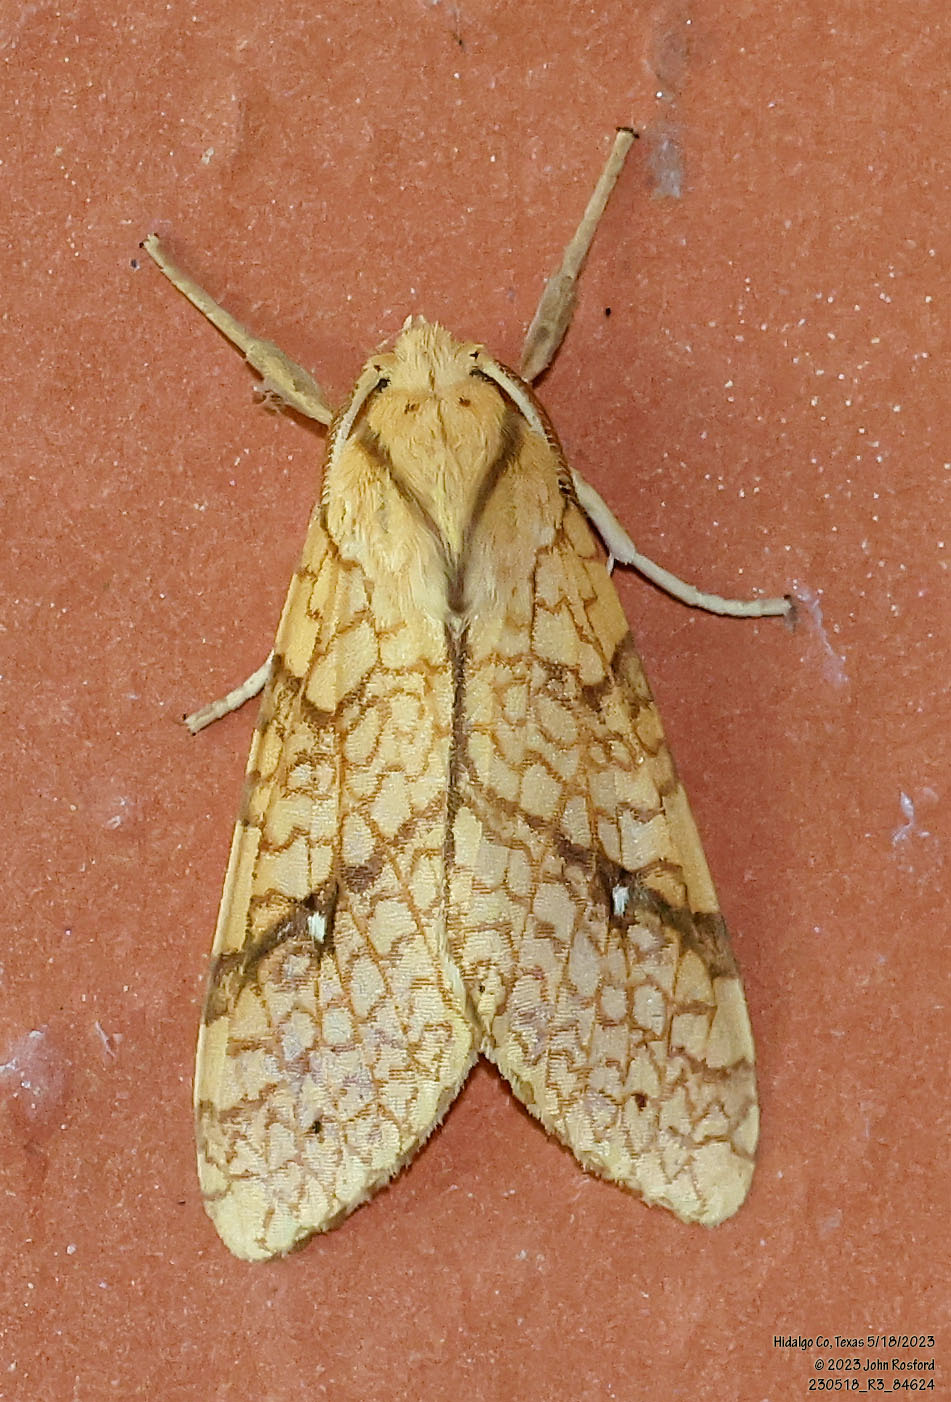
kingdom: Animalia
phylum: Arthropoda
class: Insecta
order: Lepidoptera
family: Erebidae
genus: Lophocampa
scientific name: Lophocampa annulosa
